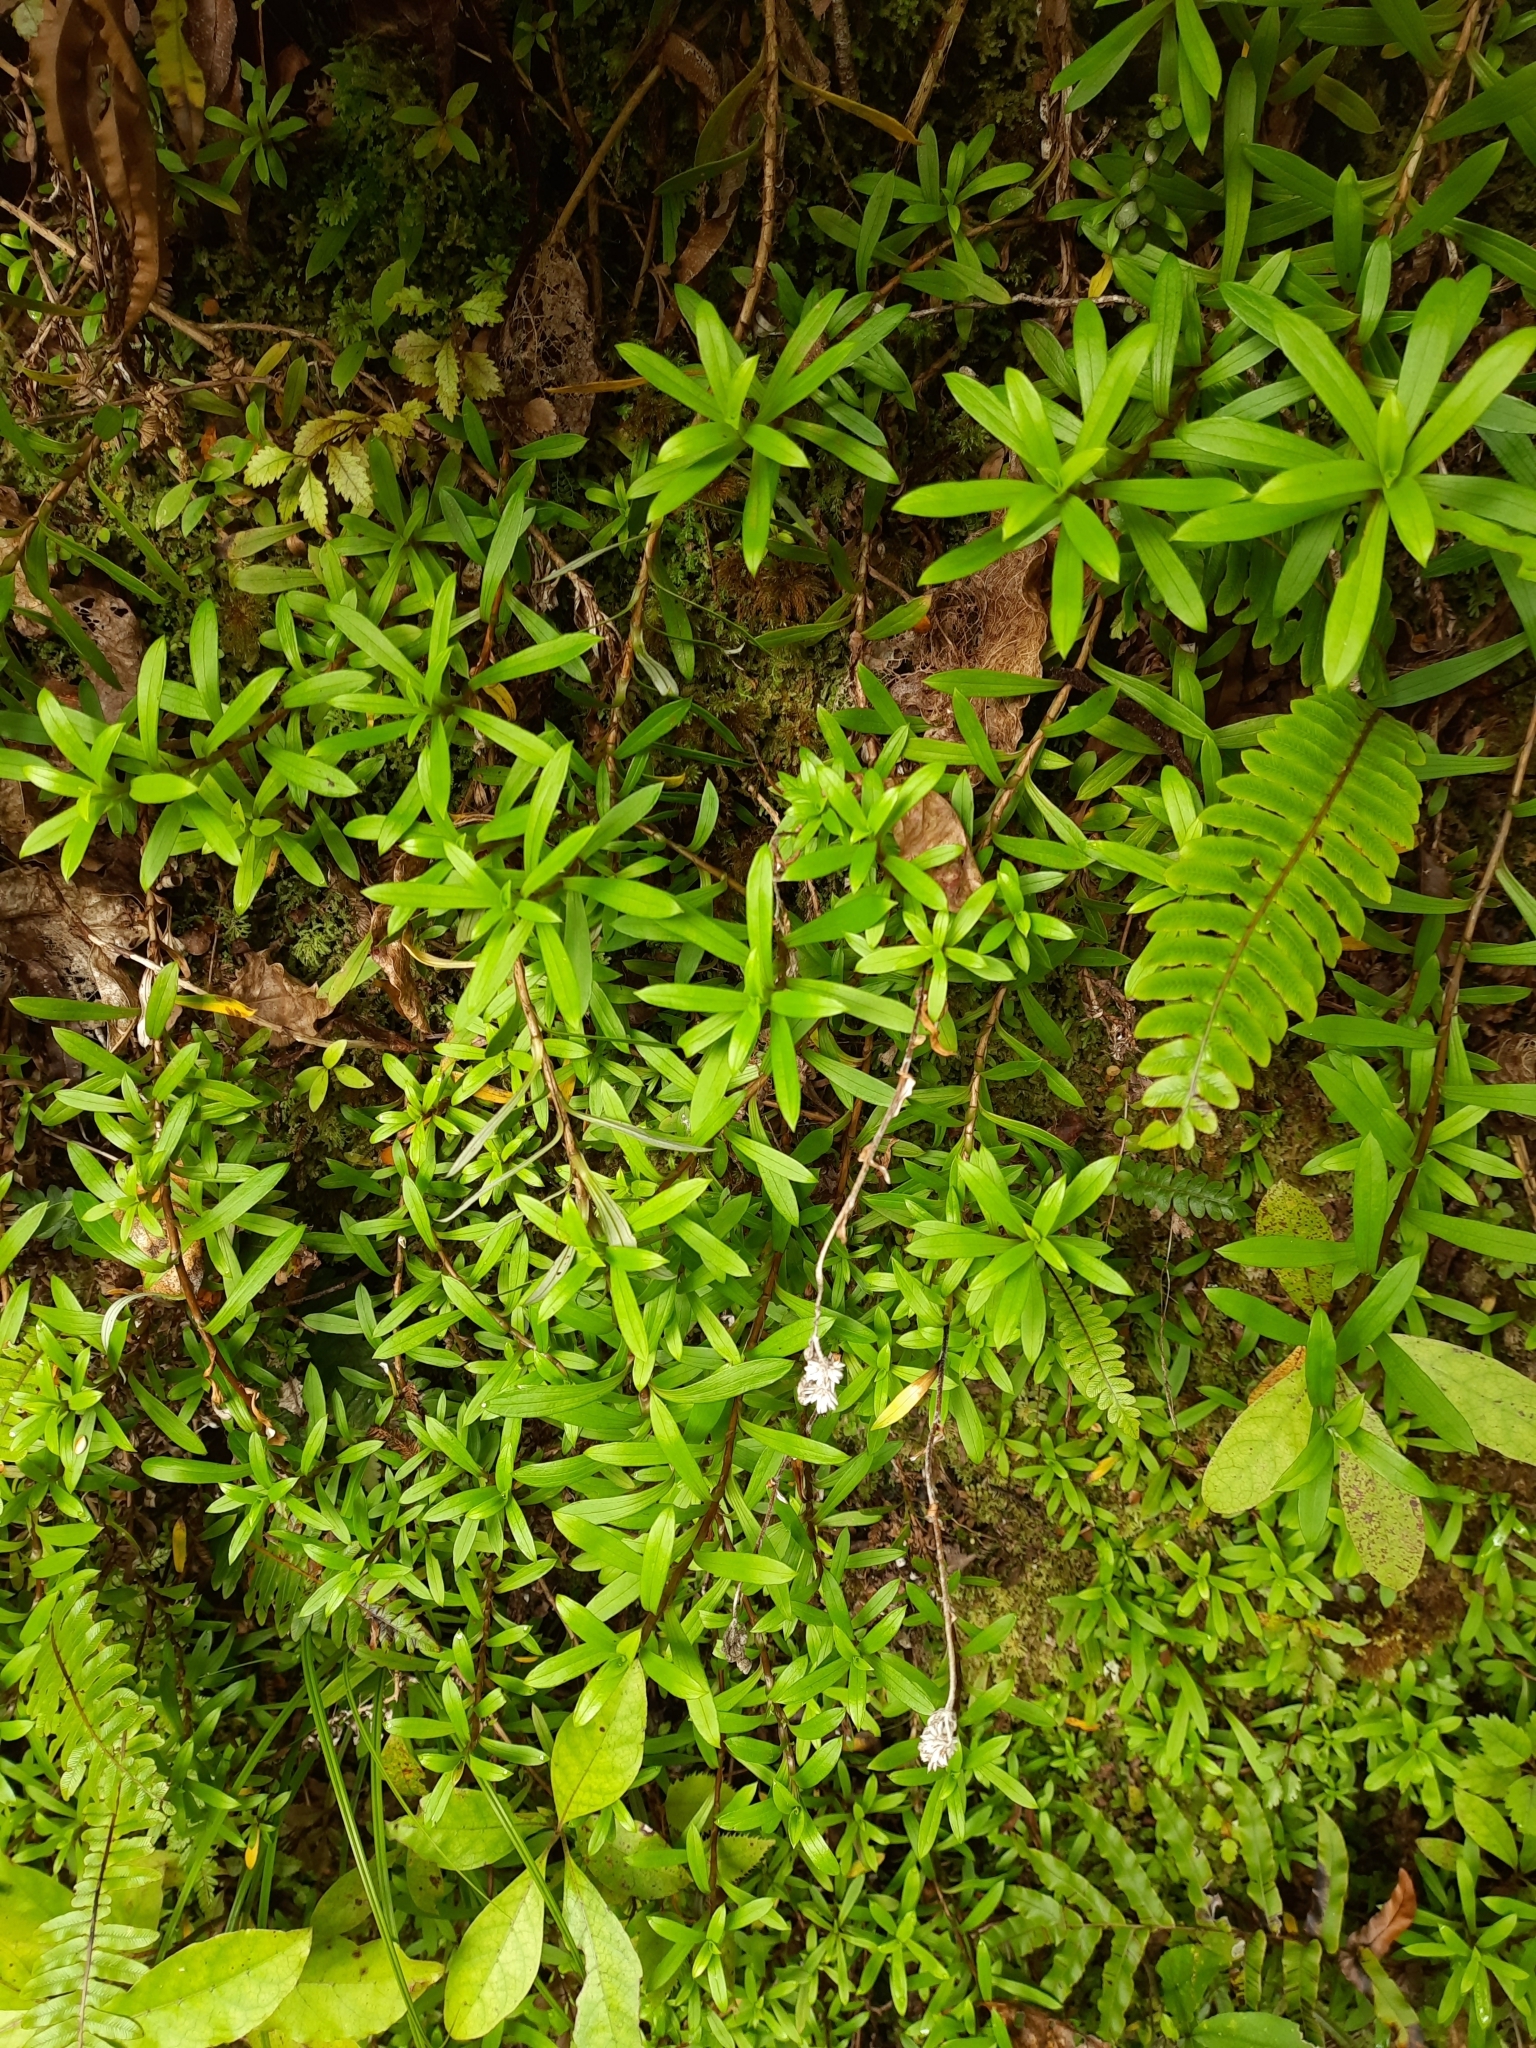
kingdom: Plantae
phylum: Tracheophyta
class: Magnoliopsida
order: Asterales
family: Asteraceae
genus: Anaphalioides
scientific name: Anaphalioides trinervis
